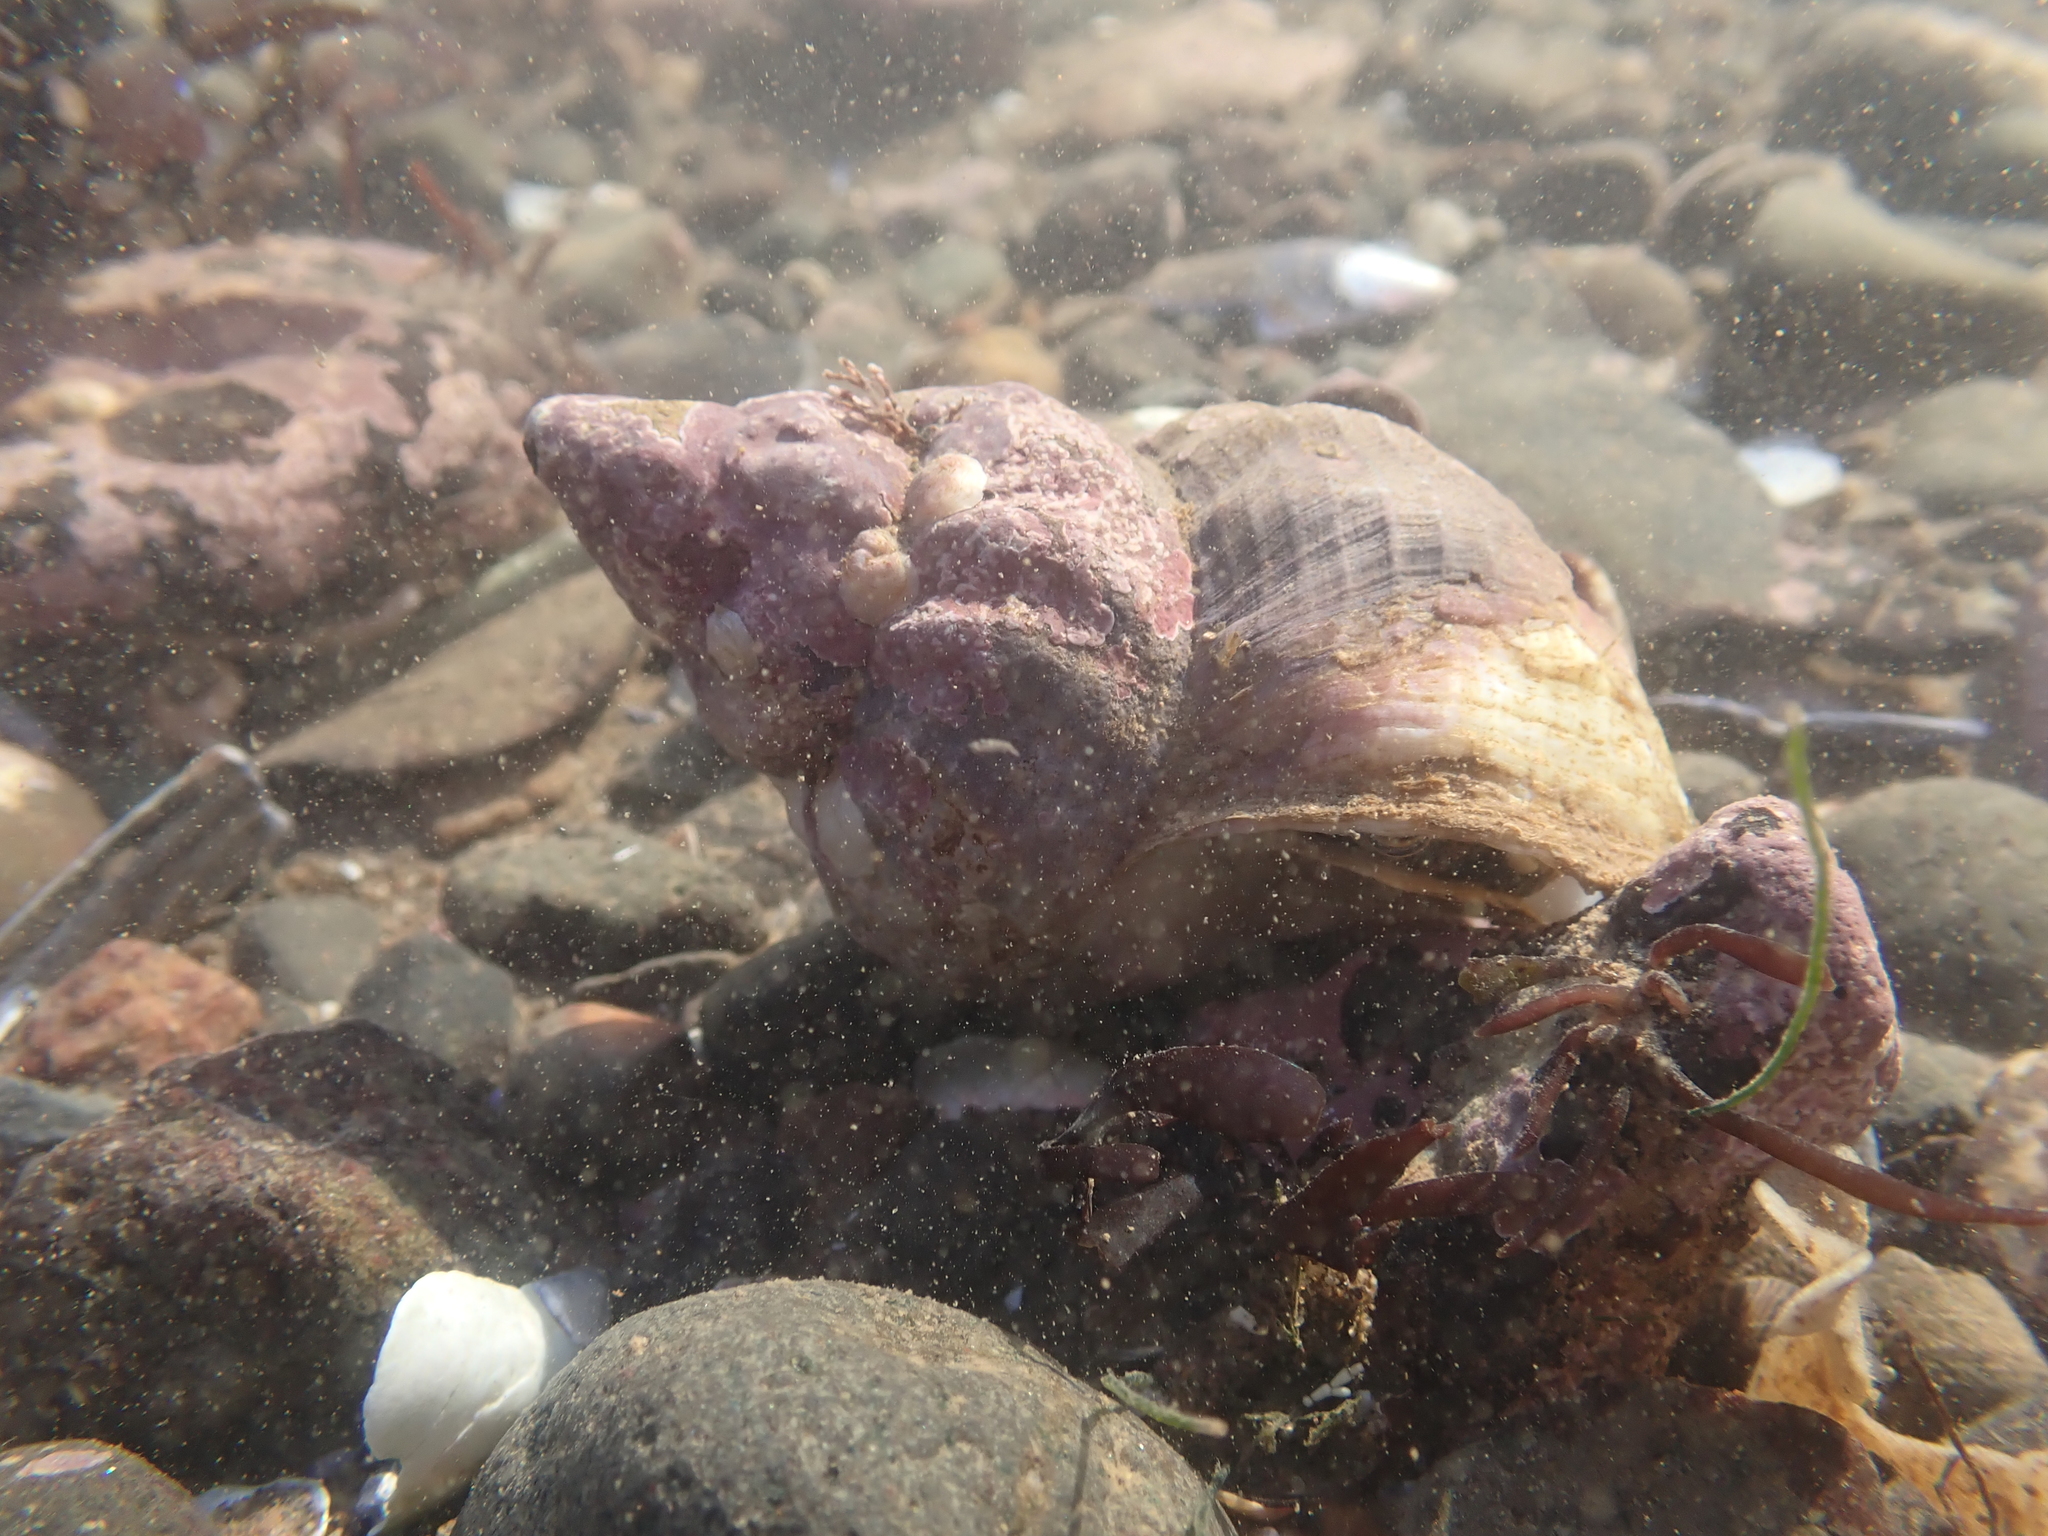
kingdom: Animalia
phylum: Mollusca
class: Gastropoda
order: Neogastropoda
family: Buccinidae
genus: Buccinum
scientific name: Buccinum undatum
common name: Common whelk
